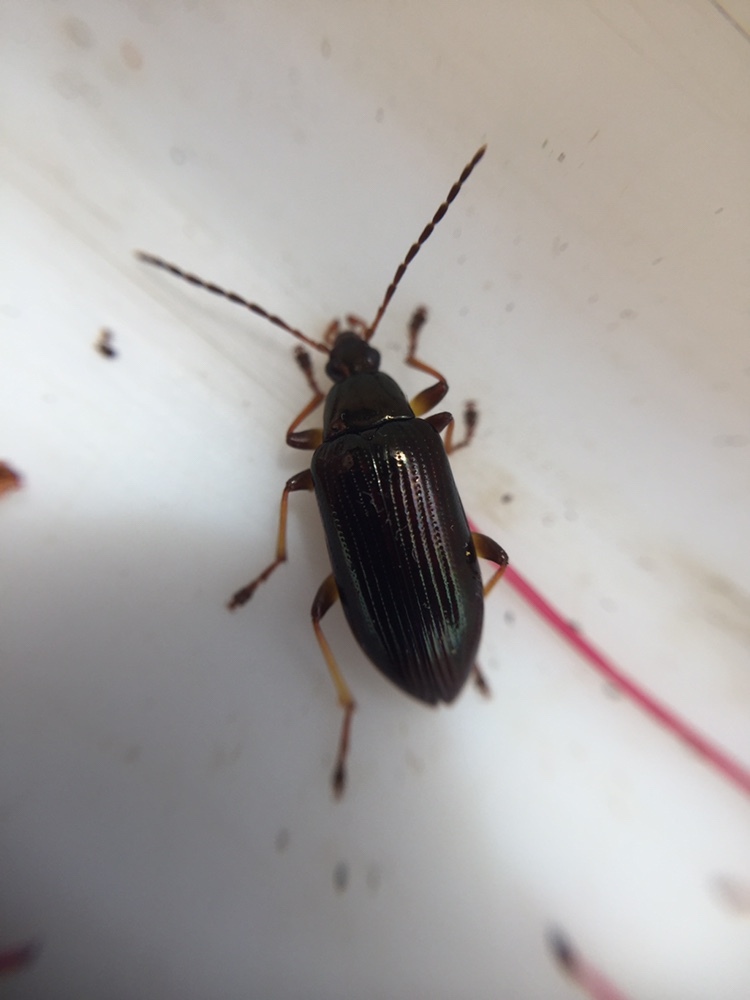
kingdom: Animalia
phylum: Arthropoda
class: Insecta
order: Coleoptera
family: Tenebrionidae
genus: Tanychilus
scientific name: Tanychilus
